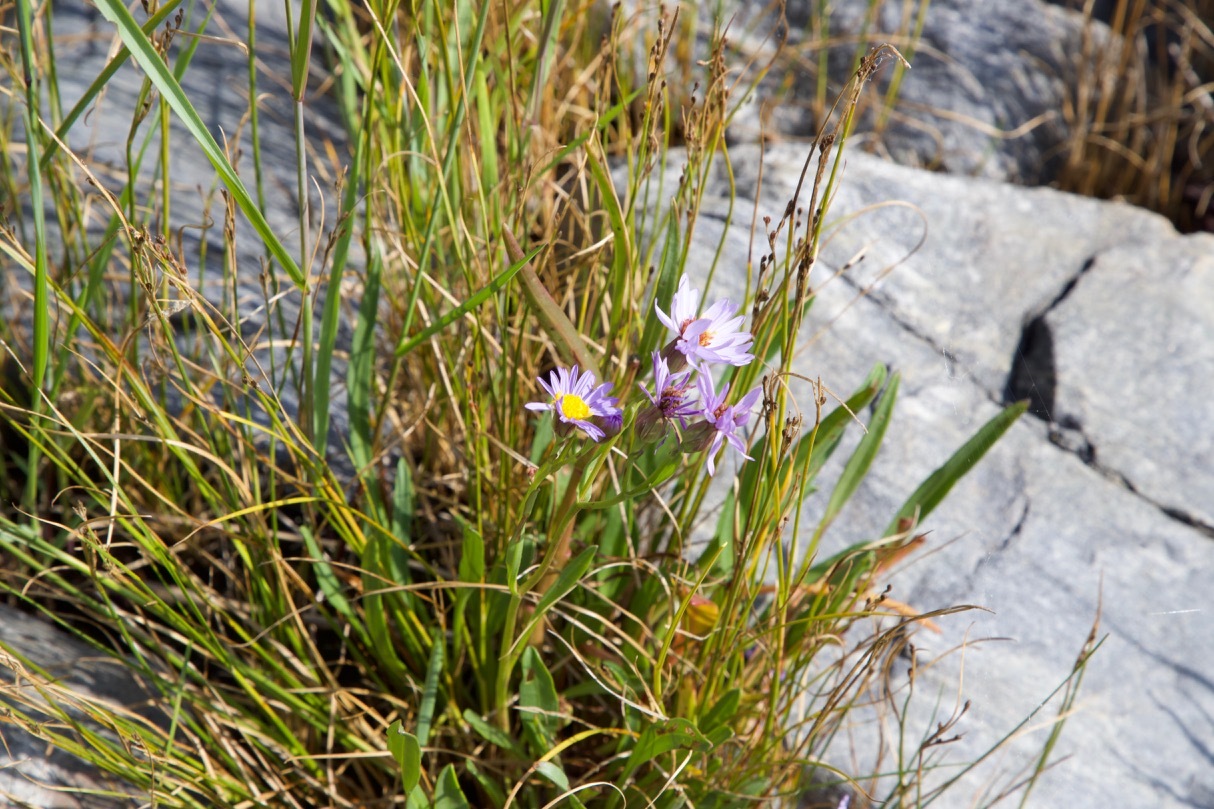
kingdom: Plantae
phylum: Tracheophyta
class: Magnoliopsida
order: Asterales
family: Asteraceae
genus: Tripolium
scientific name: Tripolium pannonicum
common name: Sea aster
